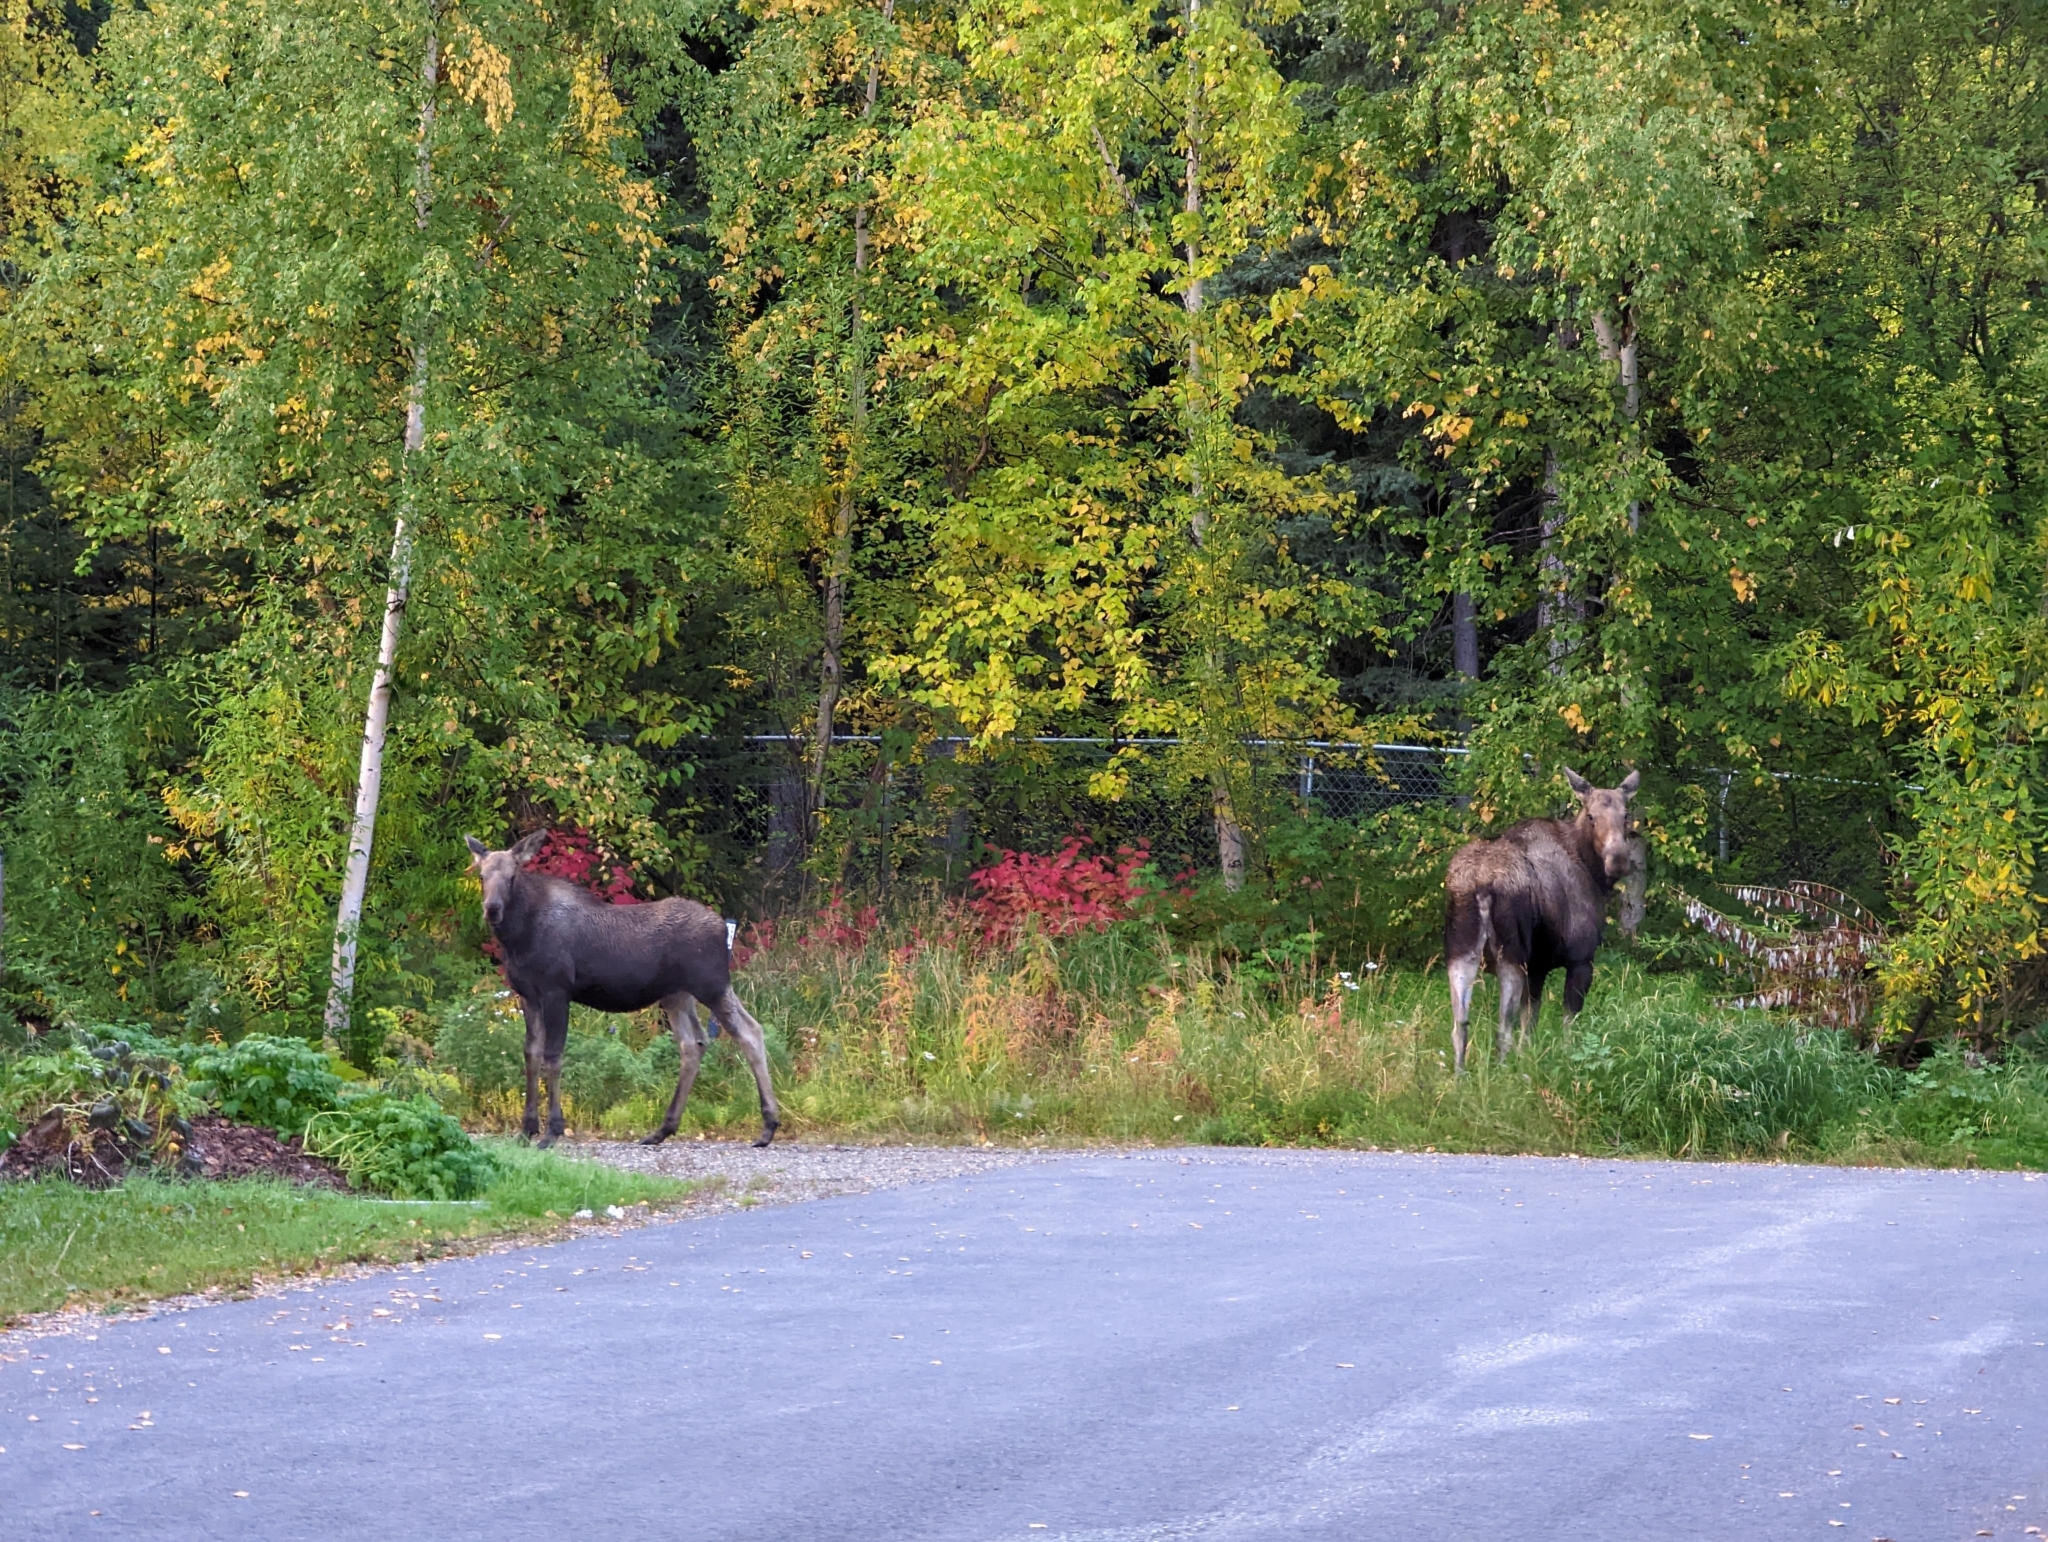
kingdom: Animalia
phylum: Chordata
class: Mammalia
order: Artiodactyla
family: Cervidae
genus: Alces
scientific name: Alces alces
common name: Moose
